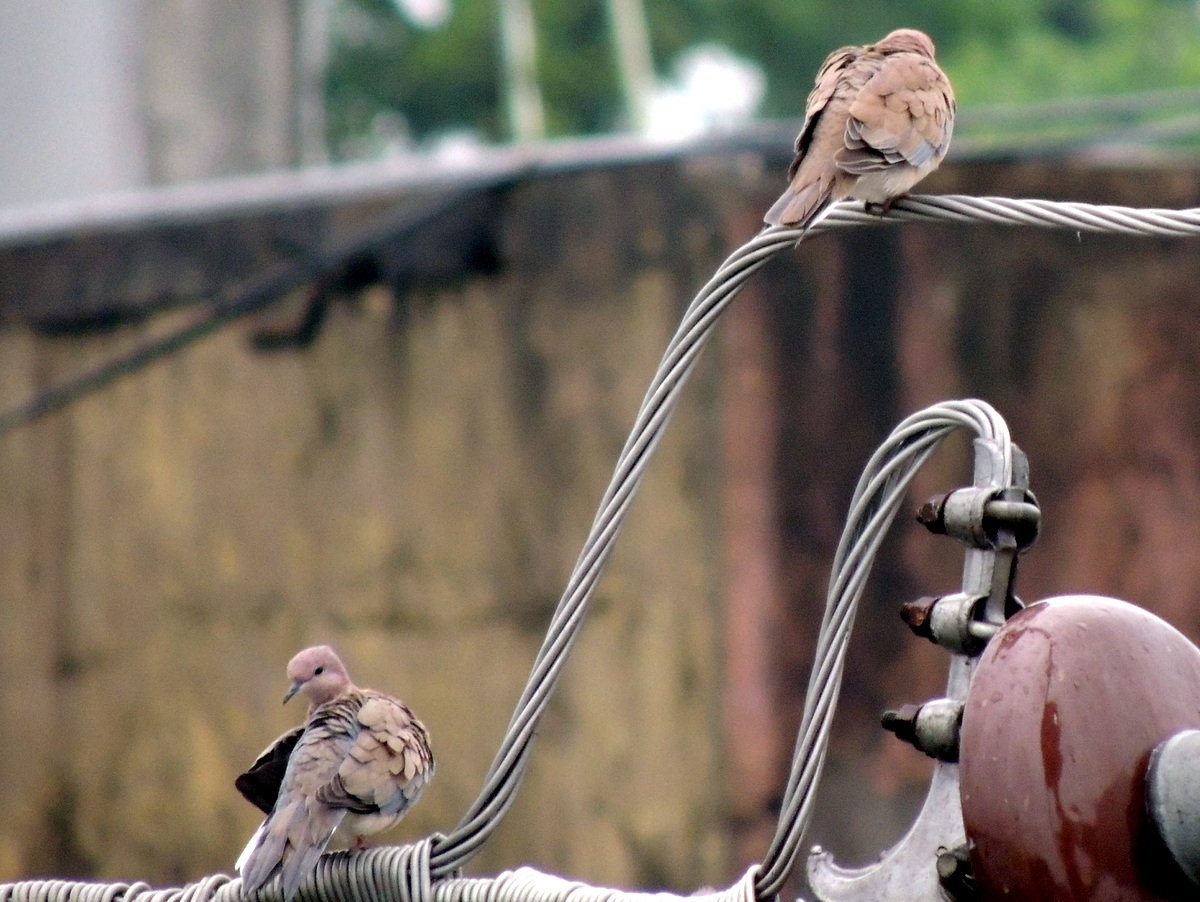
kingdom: Animalia
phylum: Chordata
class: Aves
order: Columbiformes
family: Columbidae
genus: Spilopelia
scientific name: Spilopelia senegalensis
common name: Laughing dove
